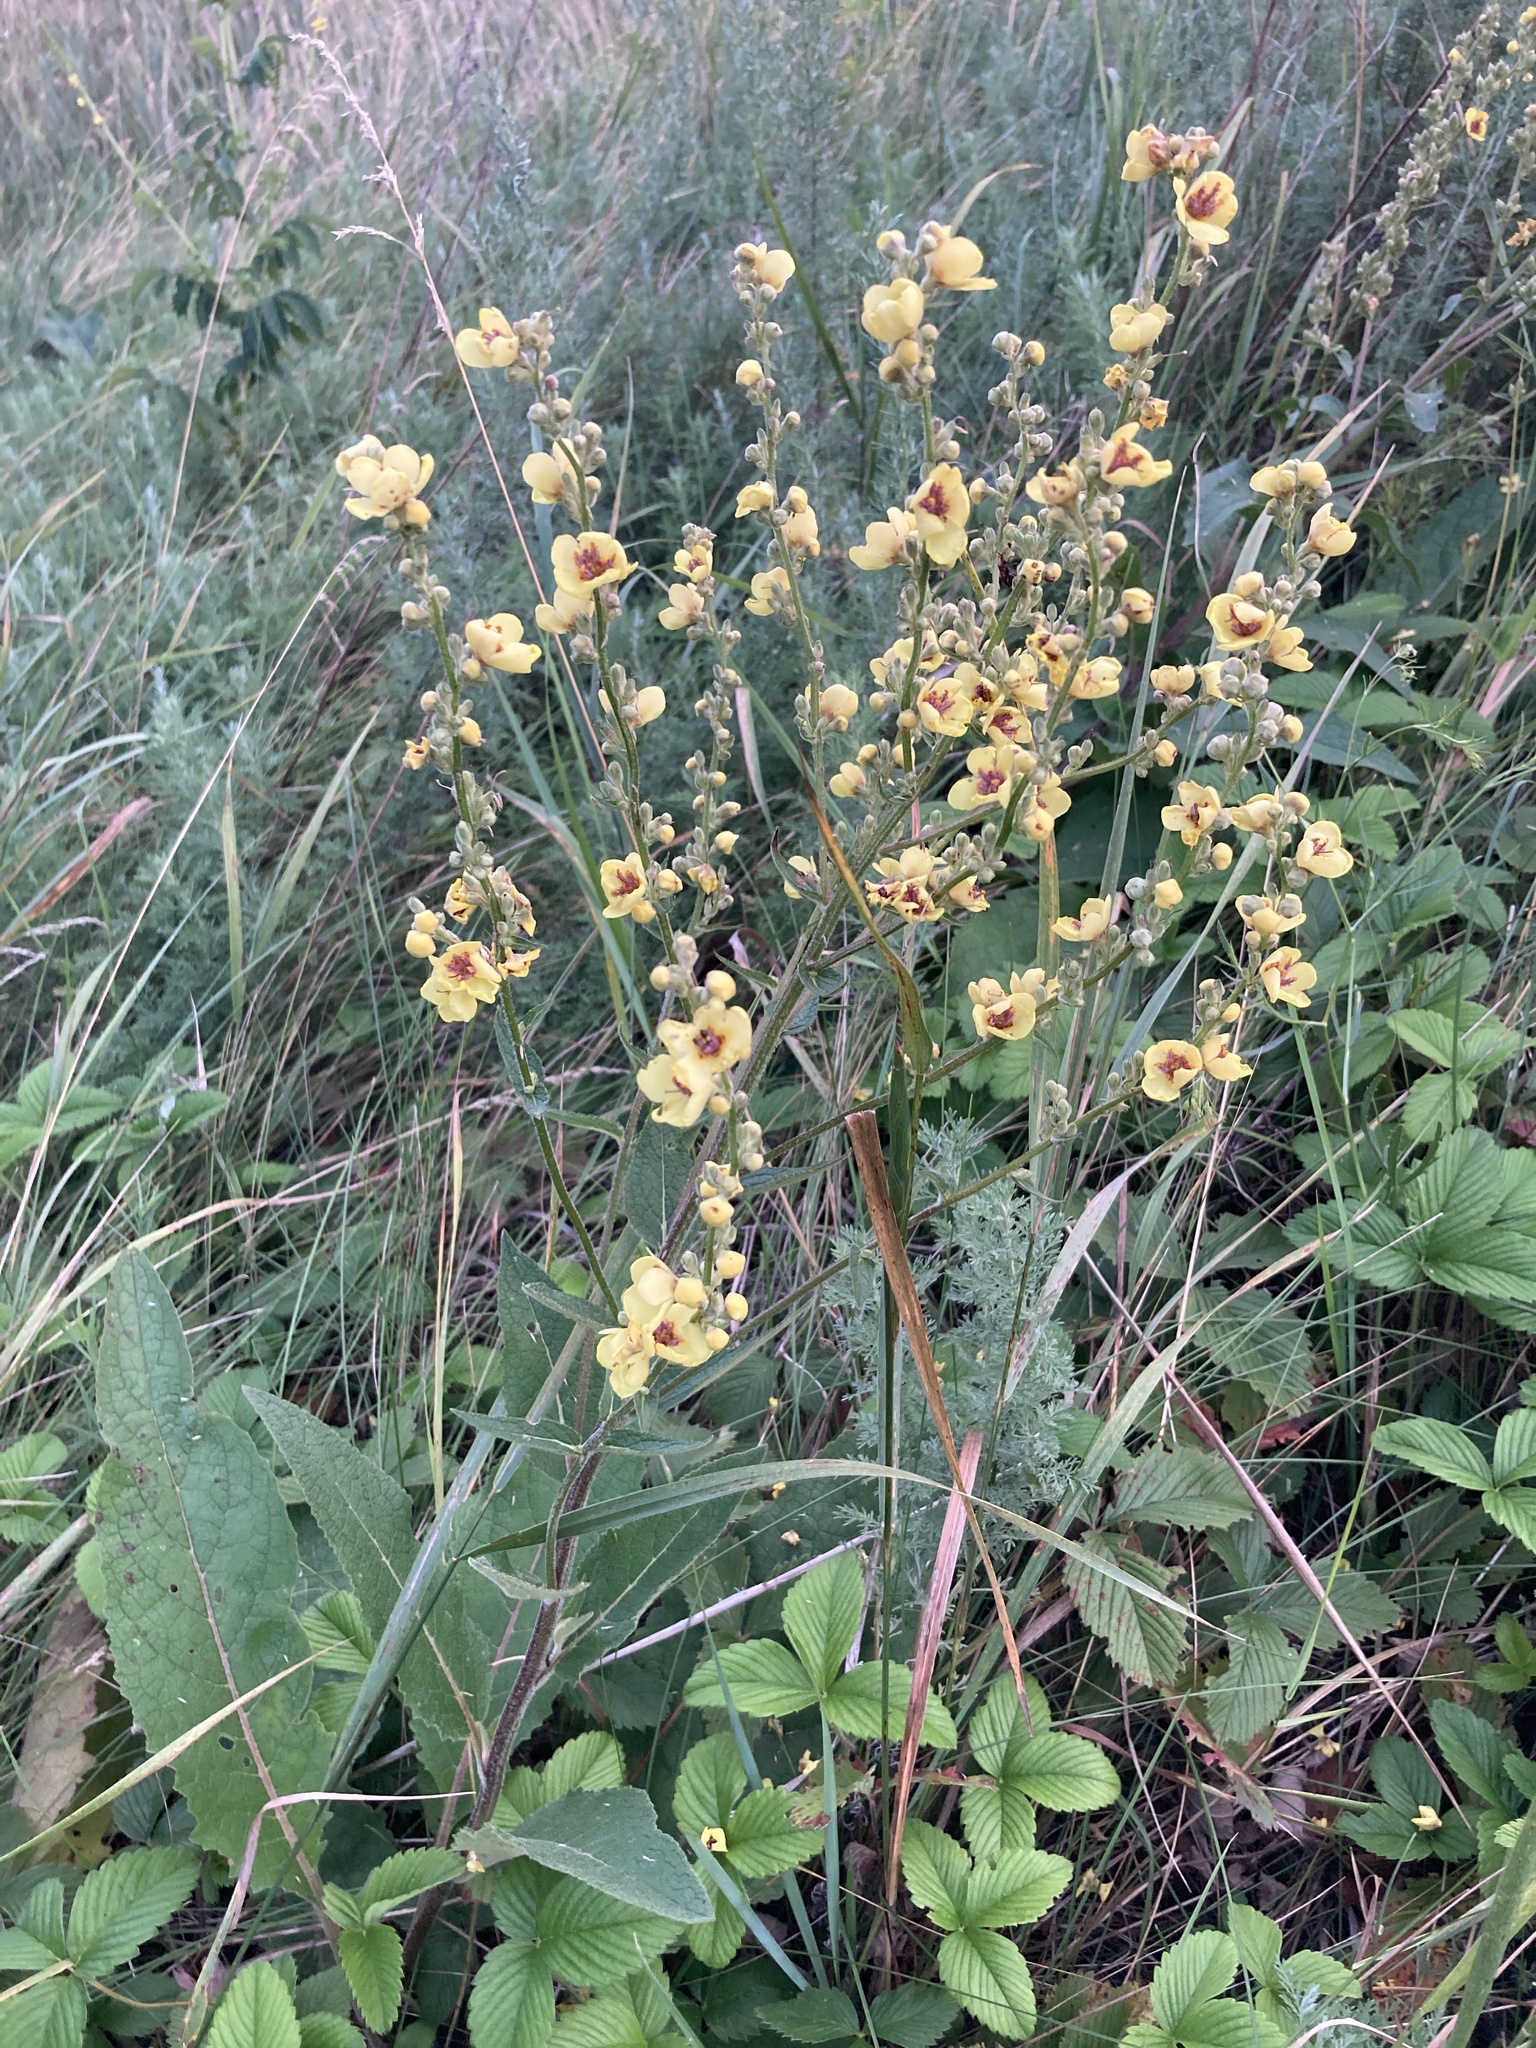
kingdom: Plantae
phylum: Tracheophyta
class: Magnoliopsida
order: Lamiales
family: Scrophulariaceae
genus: Verbascum
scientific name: Verbascum chaixii
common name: Nettle-leaved mullein
